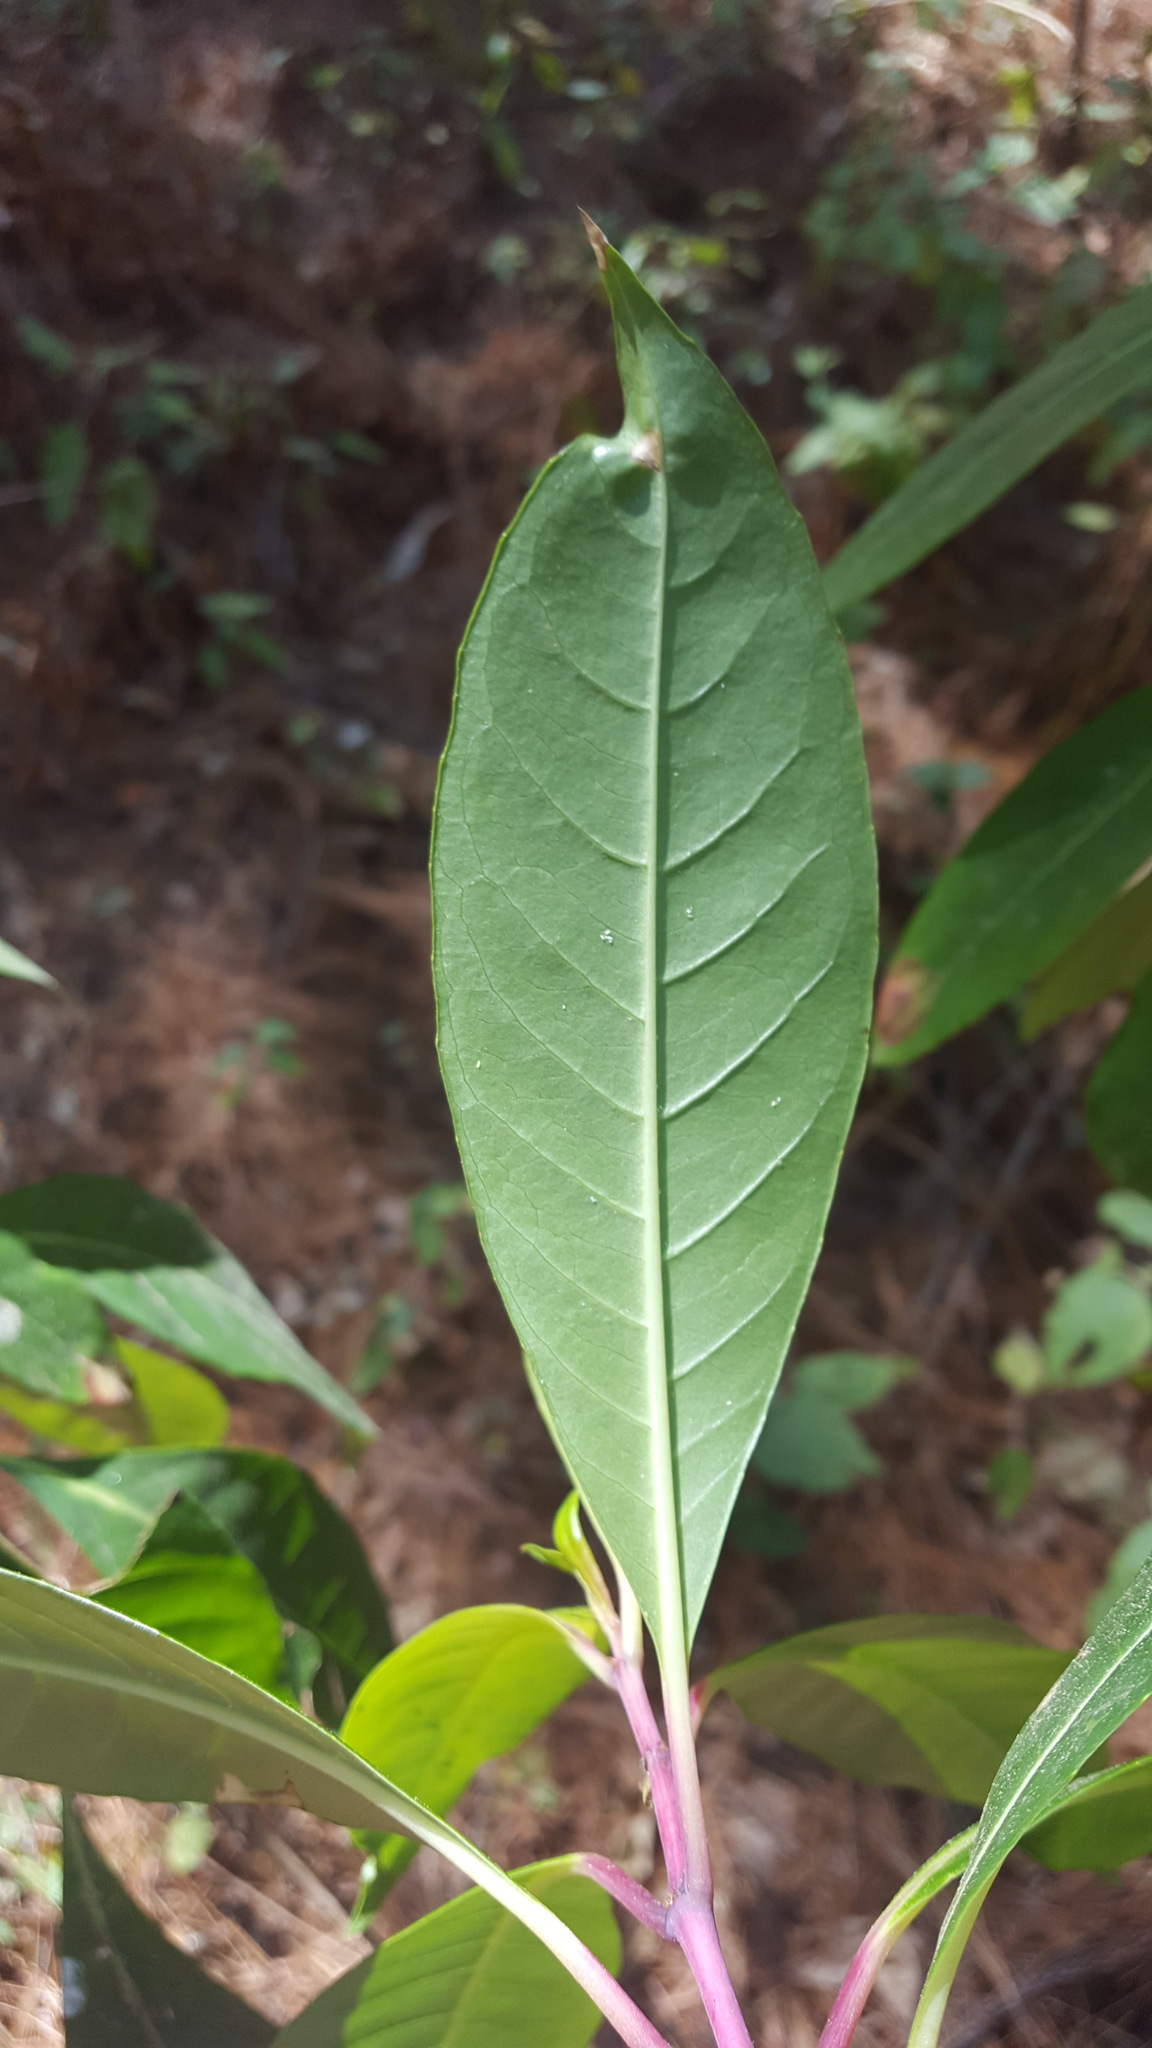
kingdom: Plantae
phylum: Tracheophyta
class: Magnoliopsida
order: Myrtales
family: Onagraceae
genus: Fuchsia
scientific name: Fuchsia arborescens
